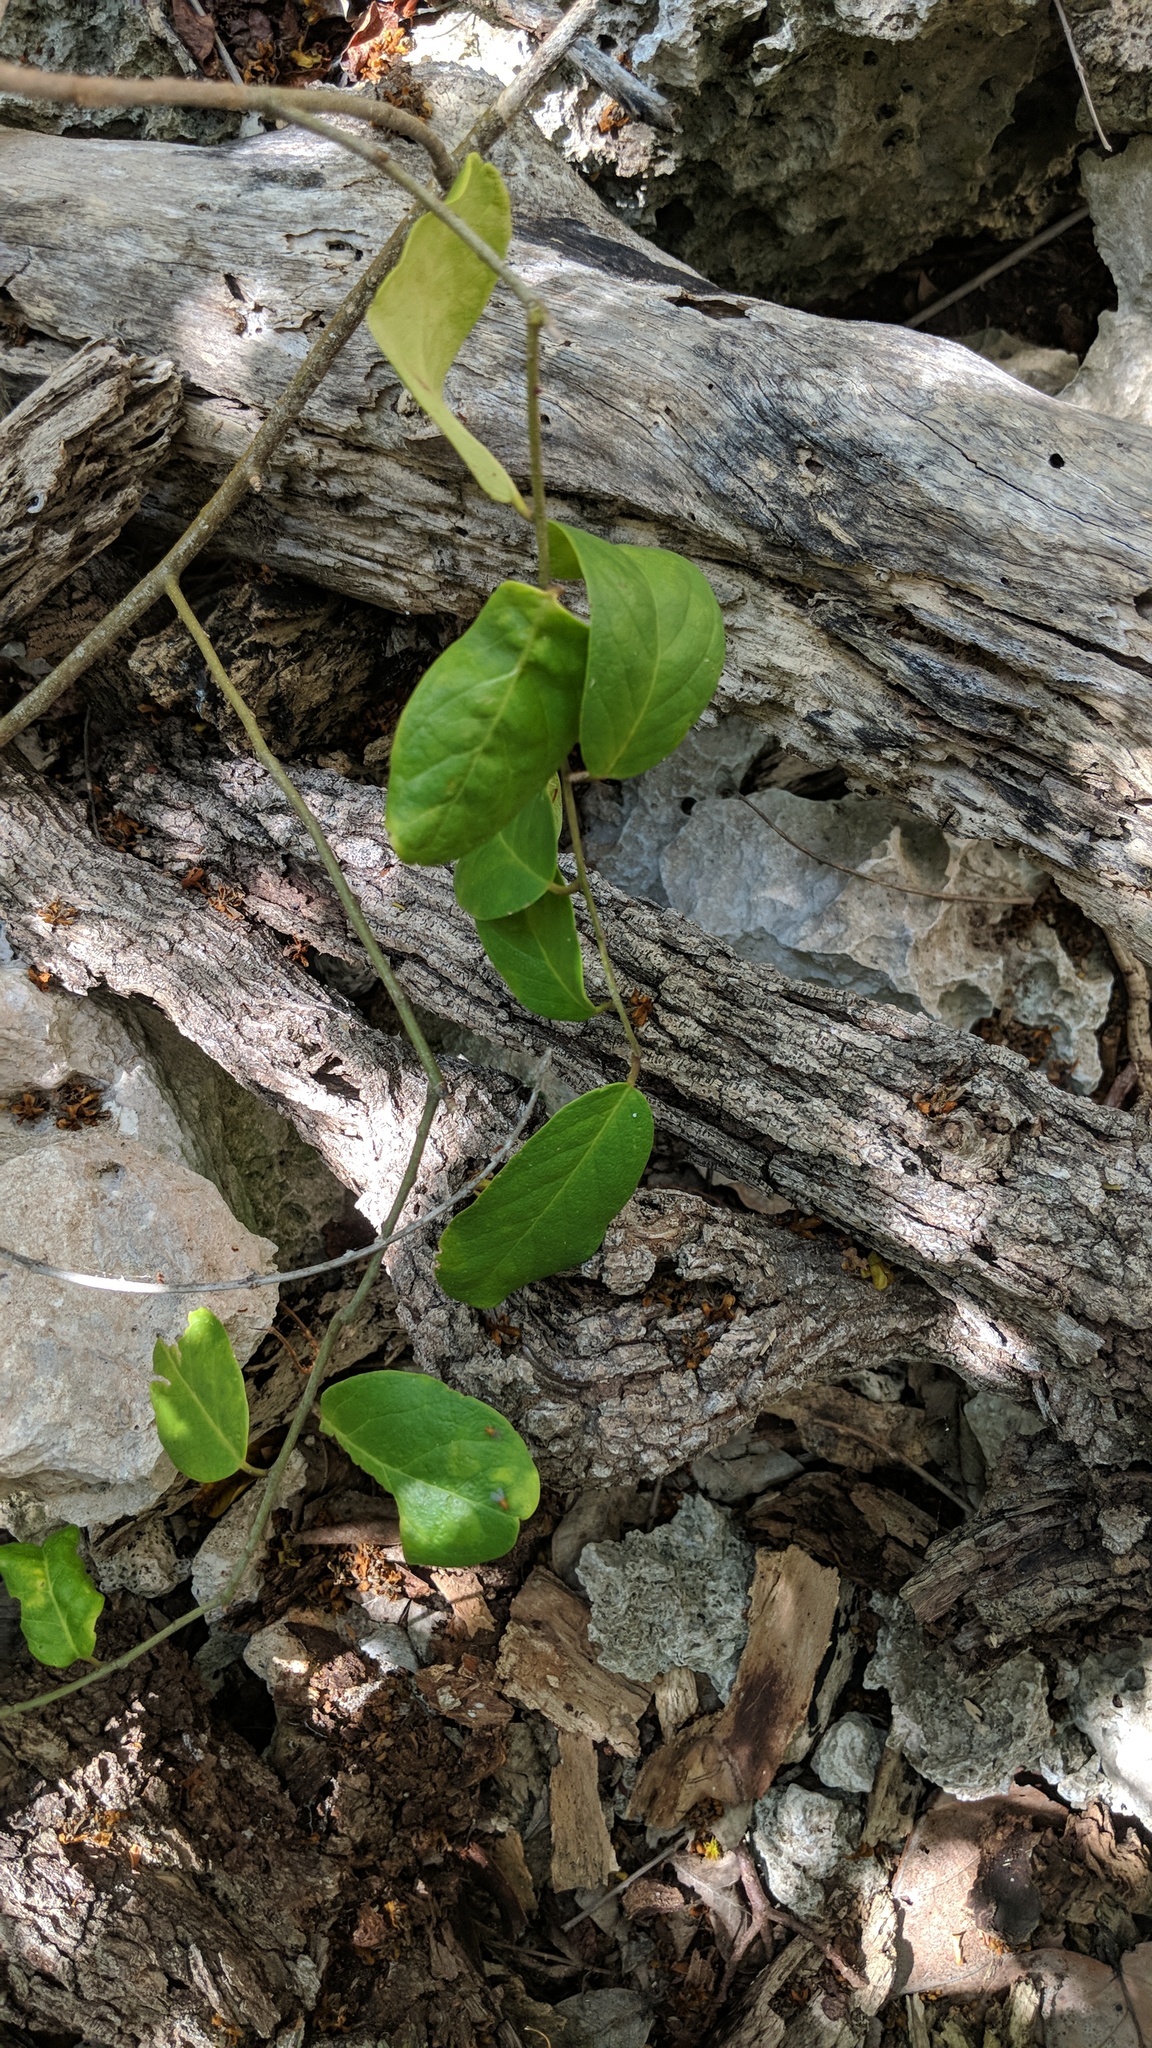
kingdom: Plantae
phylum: Tracheophyta
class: Magnoliopsida
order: Brassicales
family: Capparaceae
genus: Cynophalla
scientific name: Cynophalla flexuosa
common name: Capertree
